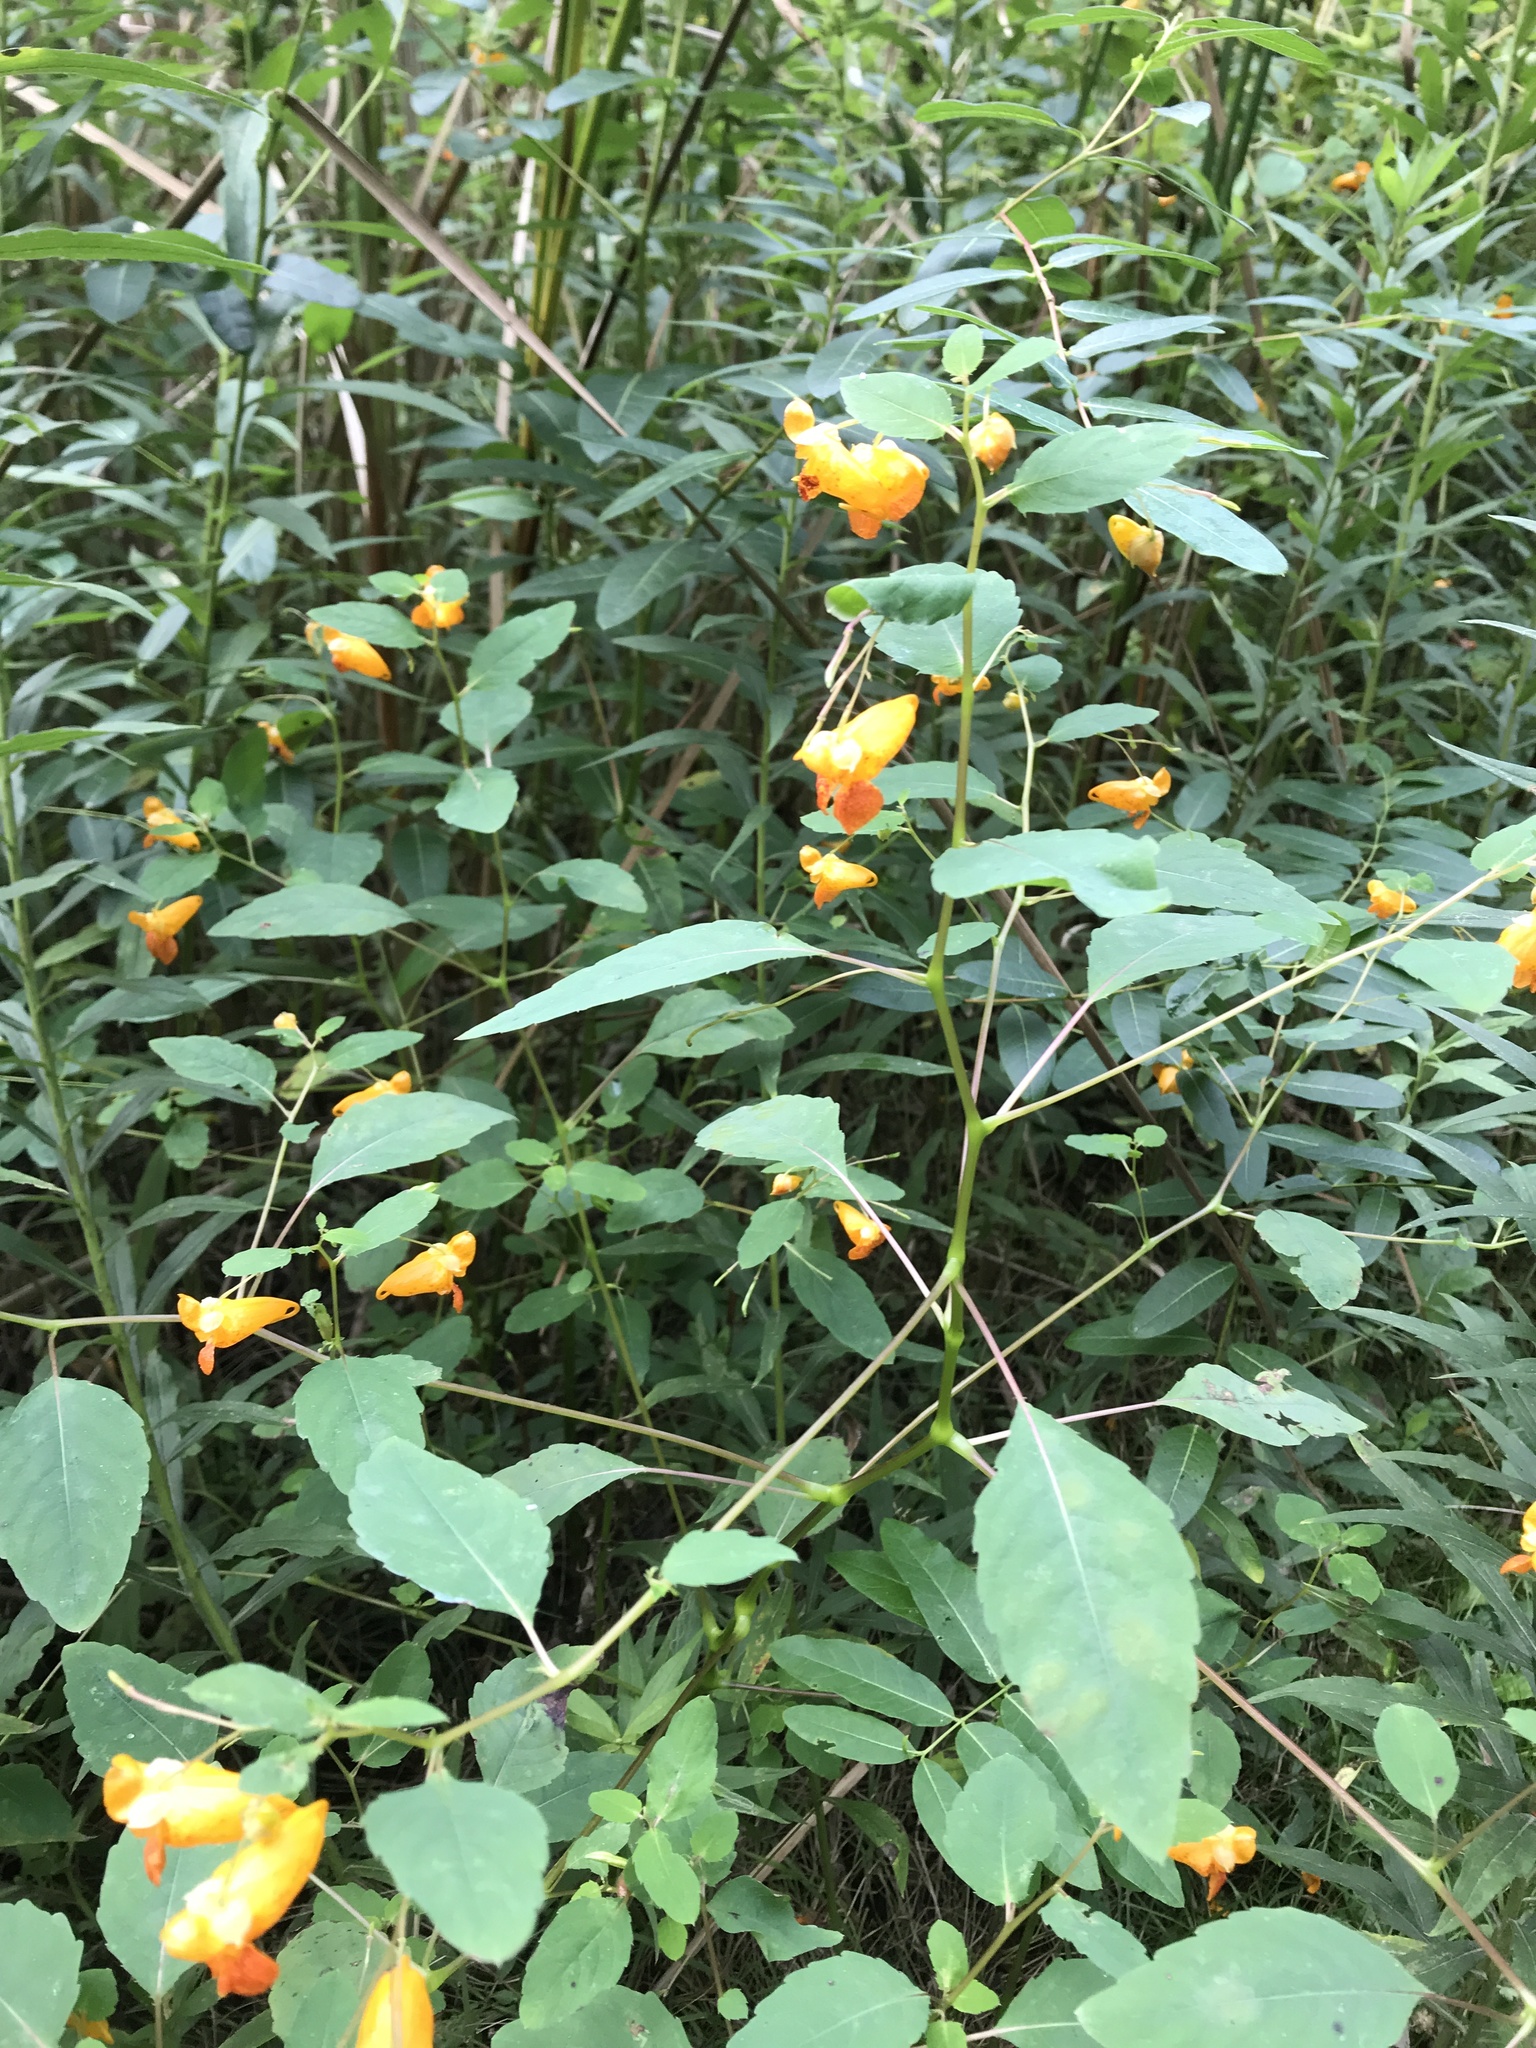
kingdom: Plantae
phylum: Tracheophyta
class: Magnoliopsida
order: Ericales
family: Balsaminaceae
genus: Impatiens
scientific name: Impatiens capensis
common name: Orange balsam
